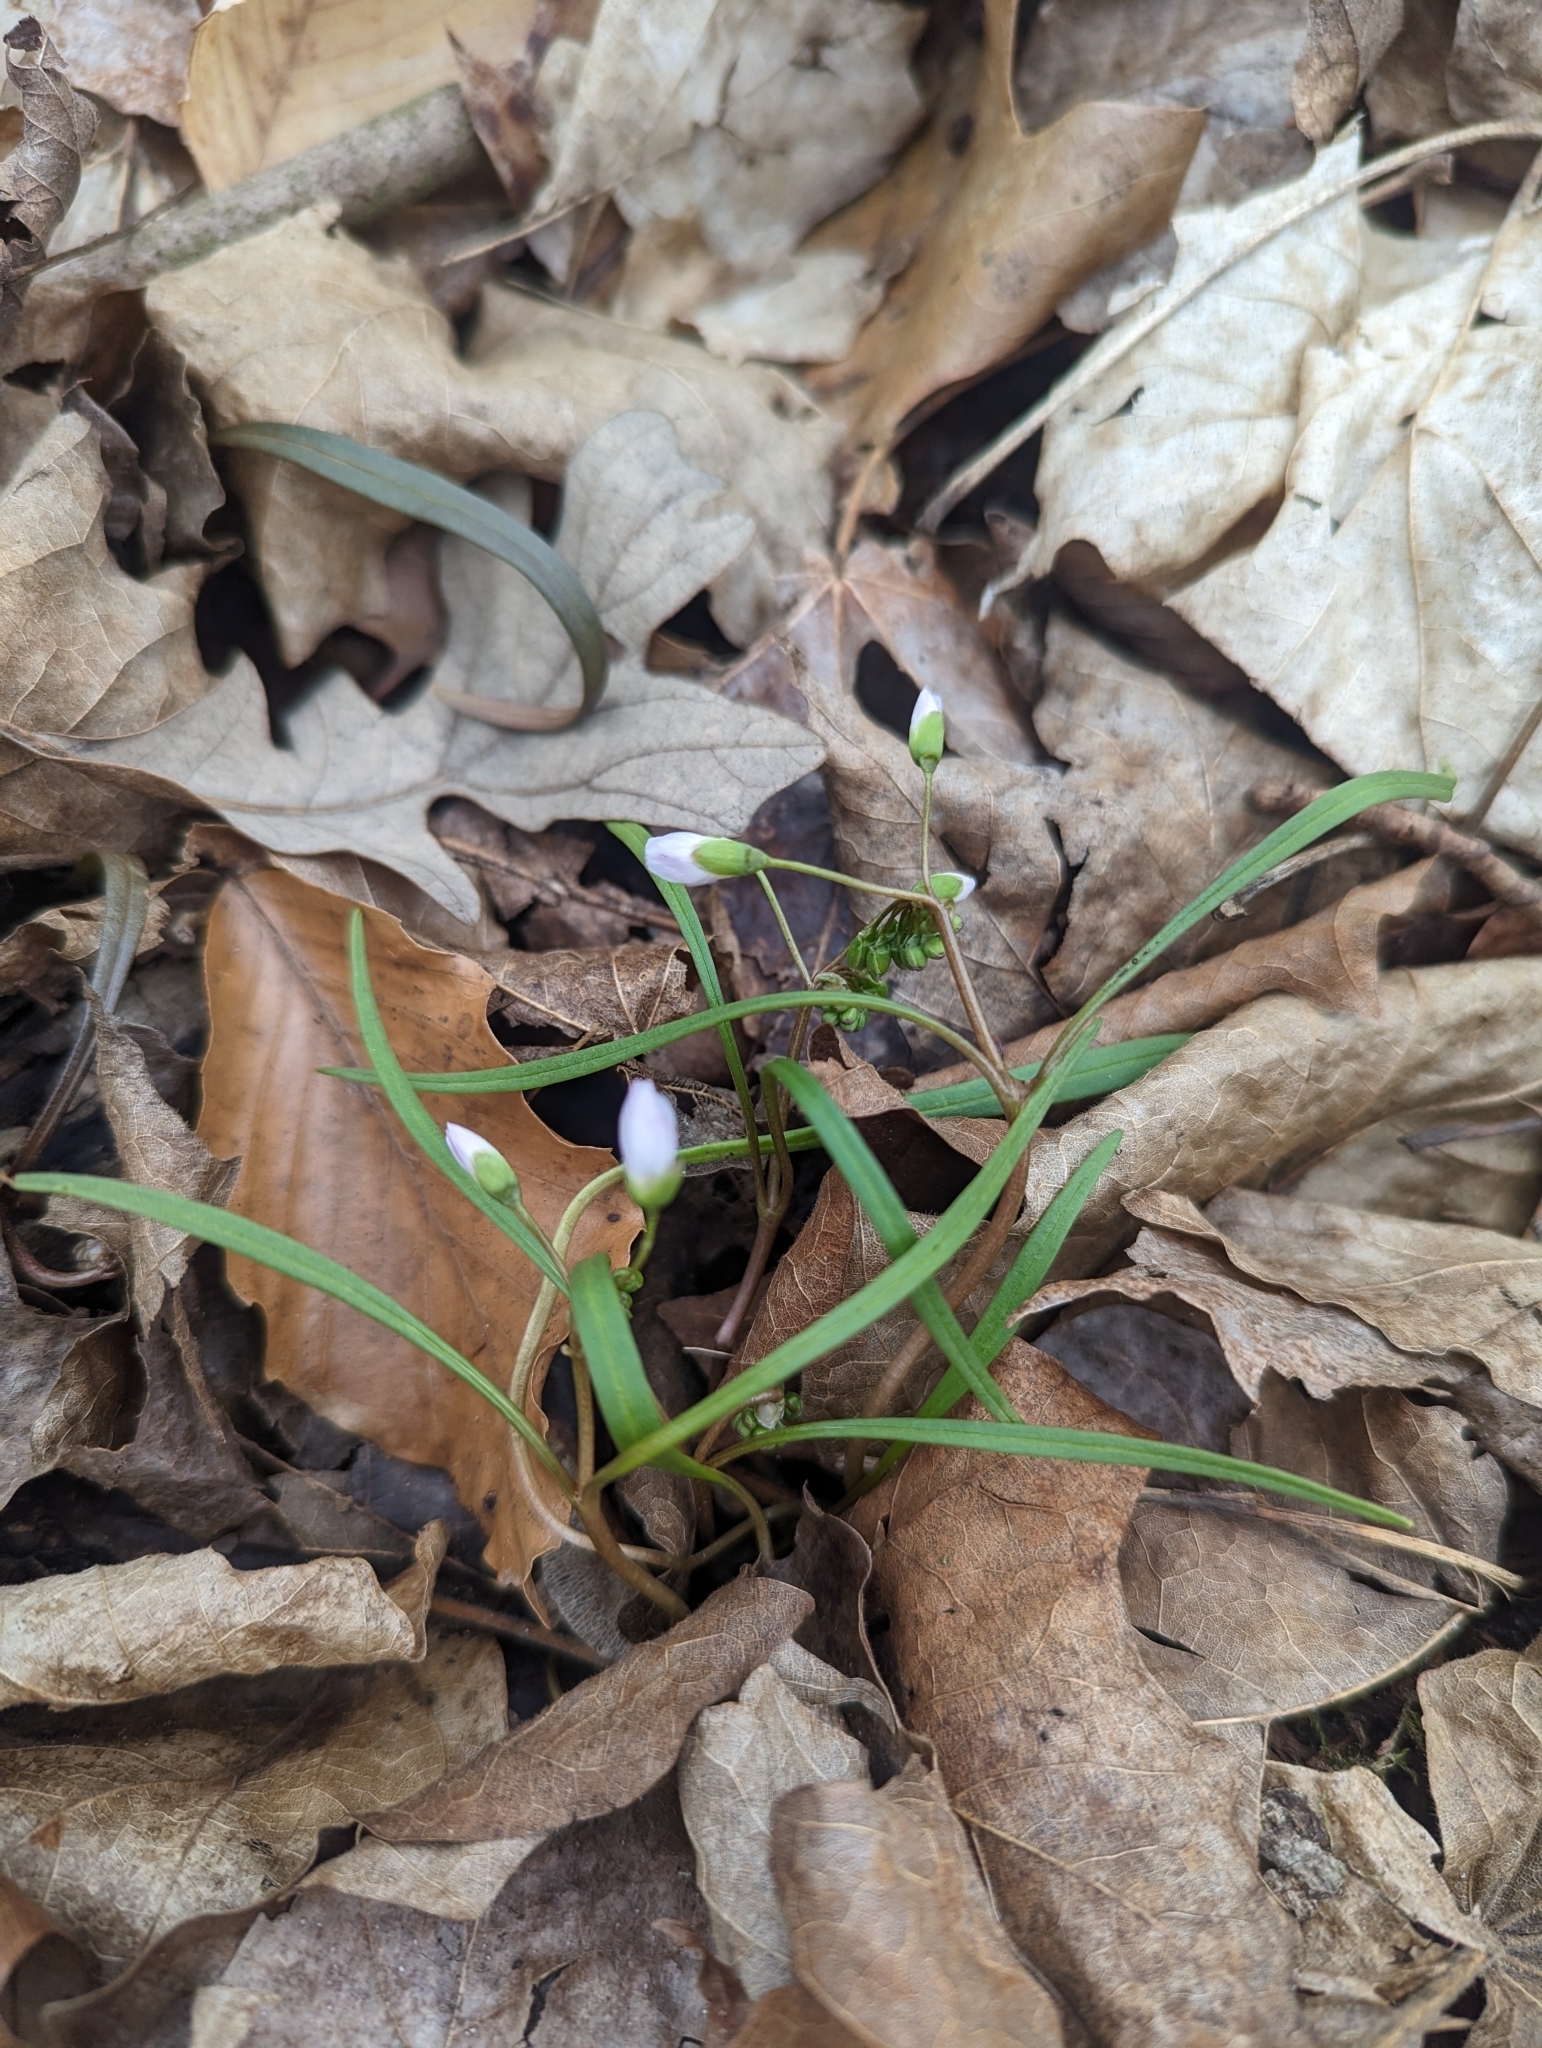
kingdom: Plantae
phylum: Tracheophyta
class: Magnoliopsida
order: Caryophyllales
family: Montiaceae
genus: Claytonia
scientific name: Claytonia virginica
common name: Virginia springbeauty
